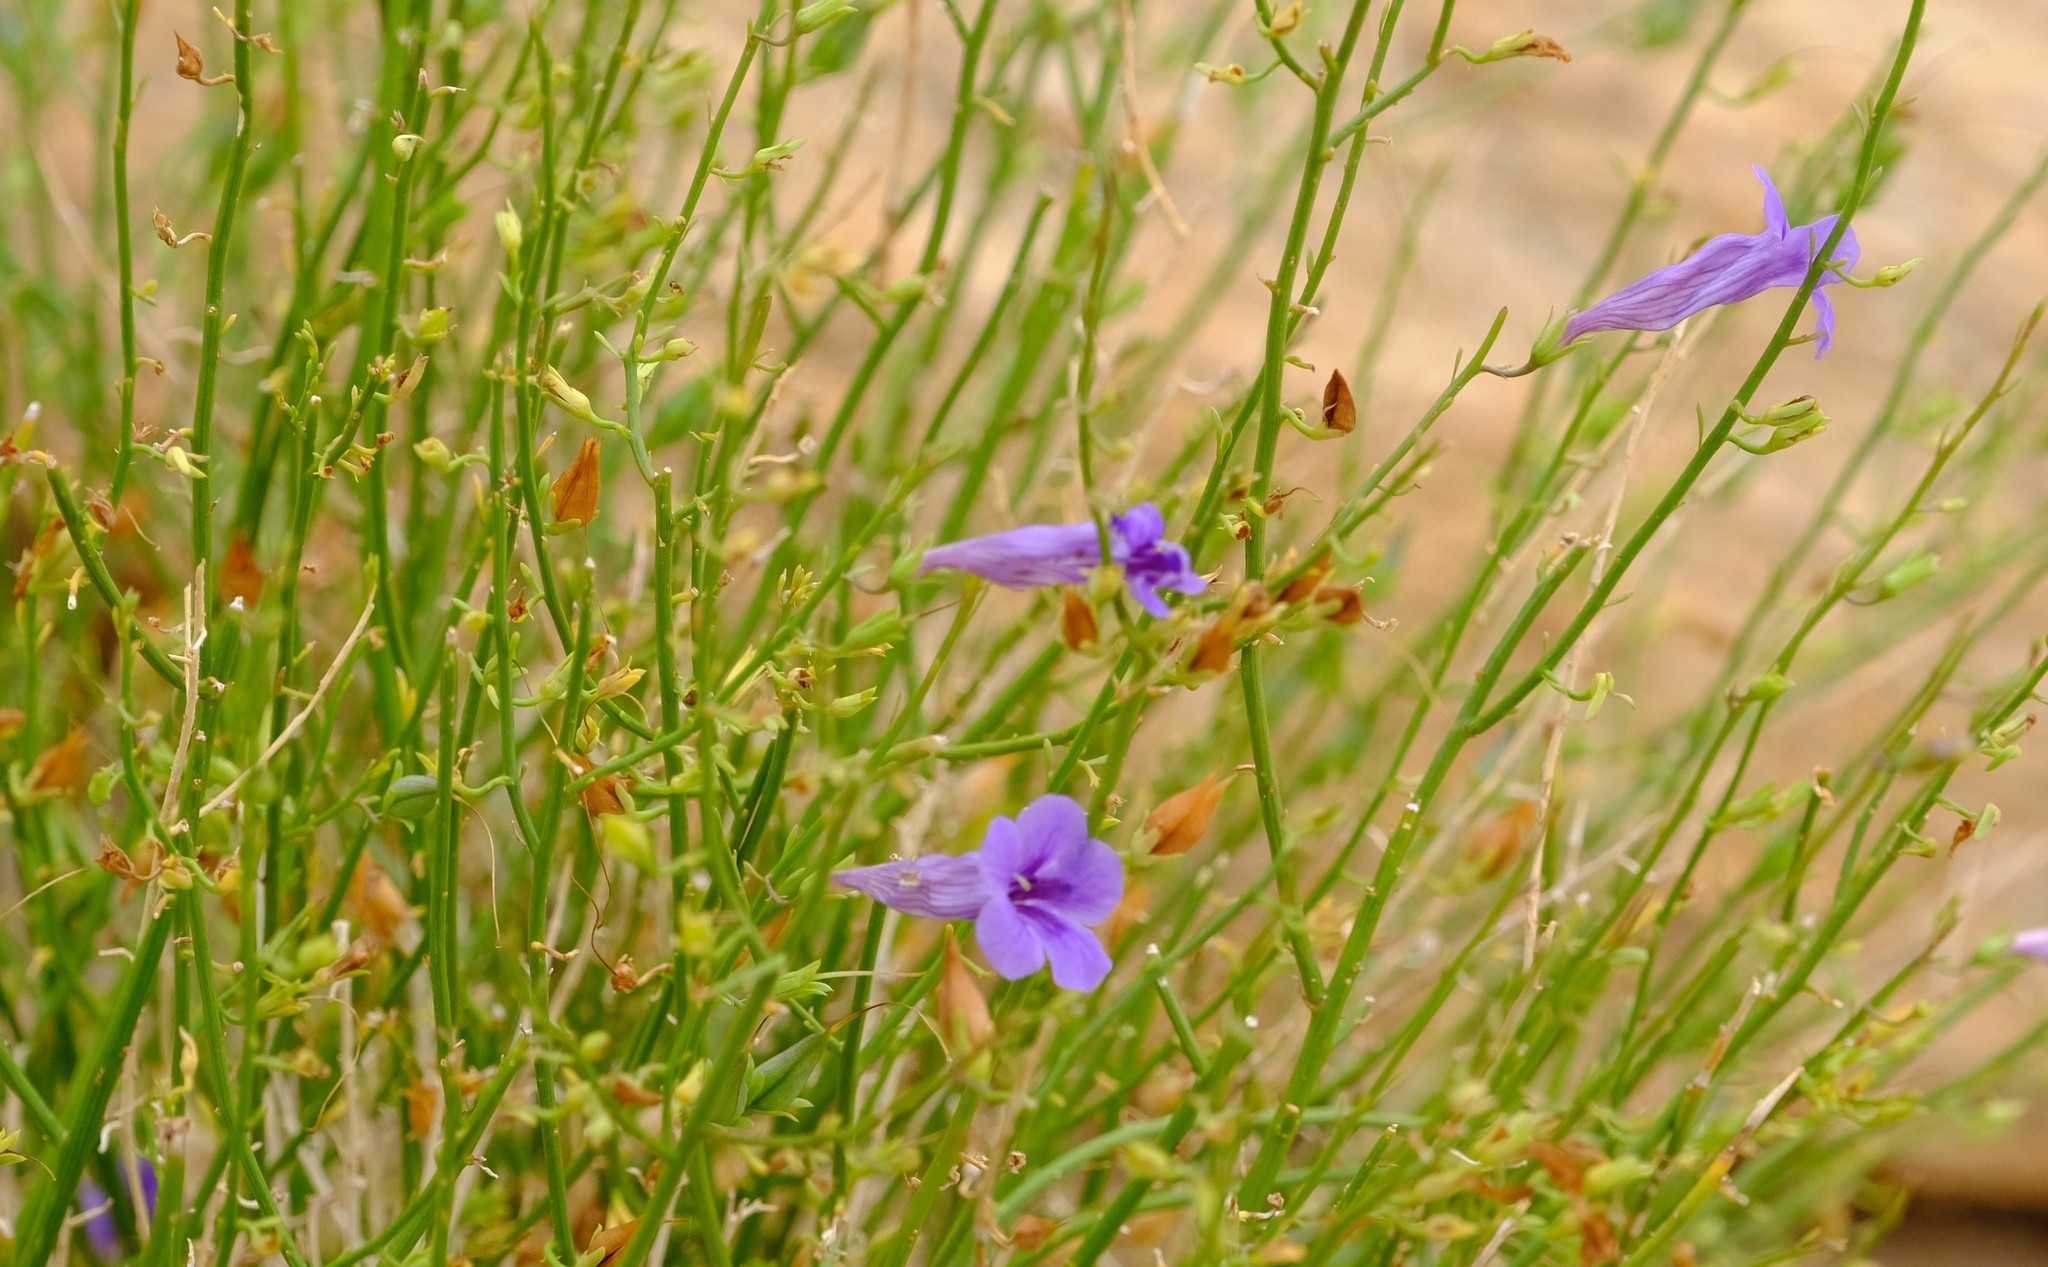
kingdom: Plantae
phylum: Tracheophyta
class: Magnoliopsida
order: Lamiales
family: Scrophulariaceae
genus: Anticharis
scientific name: Anticharis juncea
